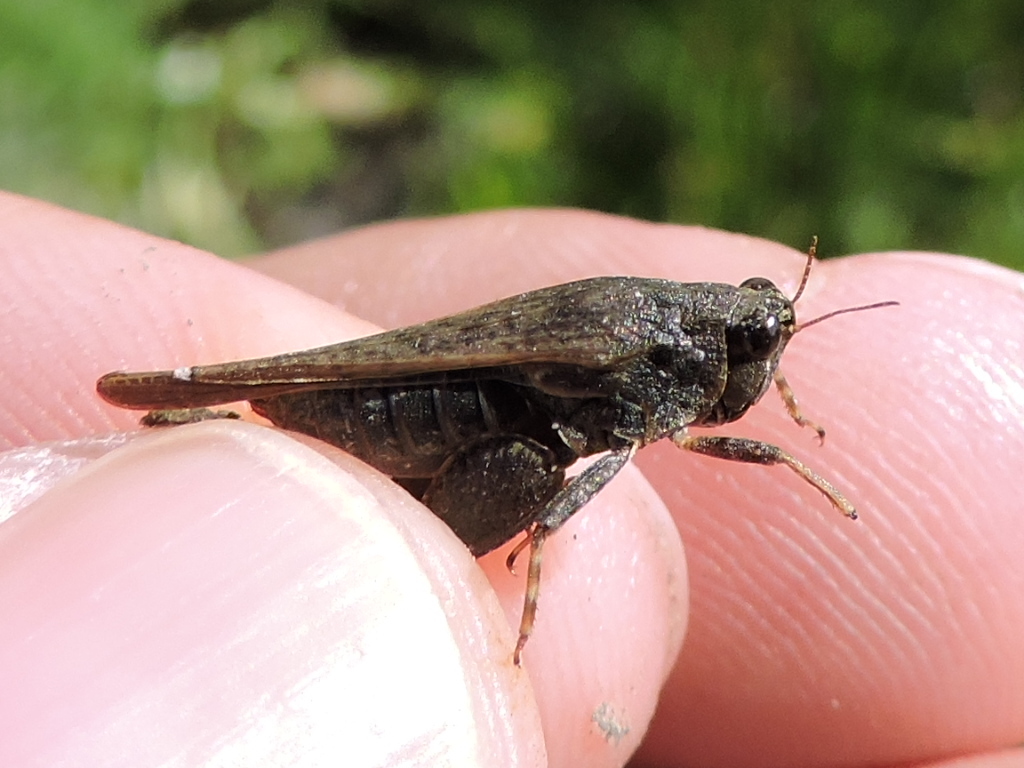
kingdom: Animalia
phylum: Arthropoda
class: Insecta
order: Orthoptera
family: Tetrigidae
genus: Tettigidea
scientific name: Tettigidea laterale
